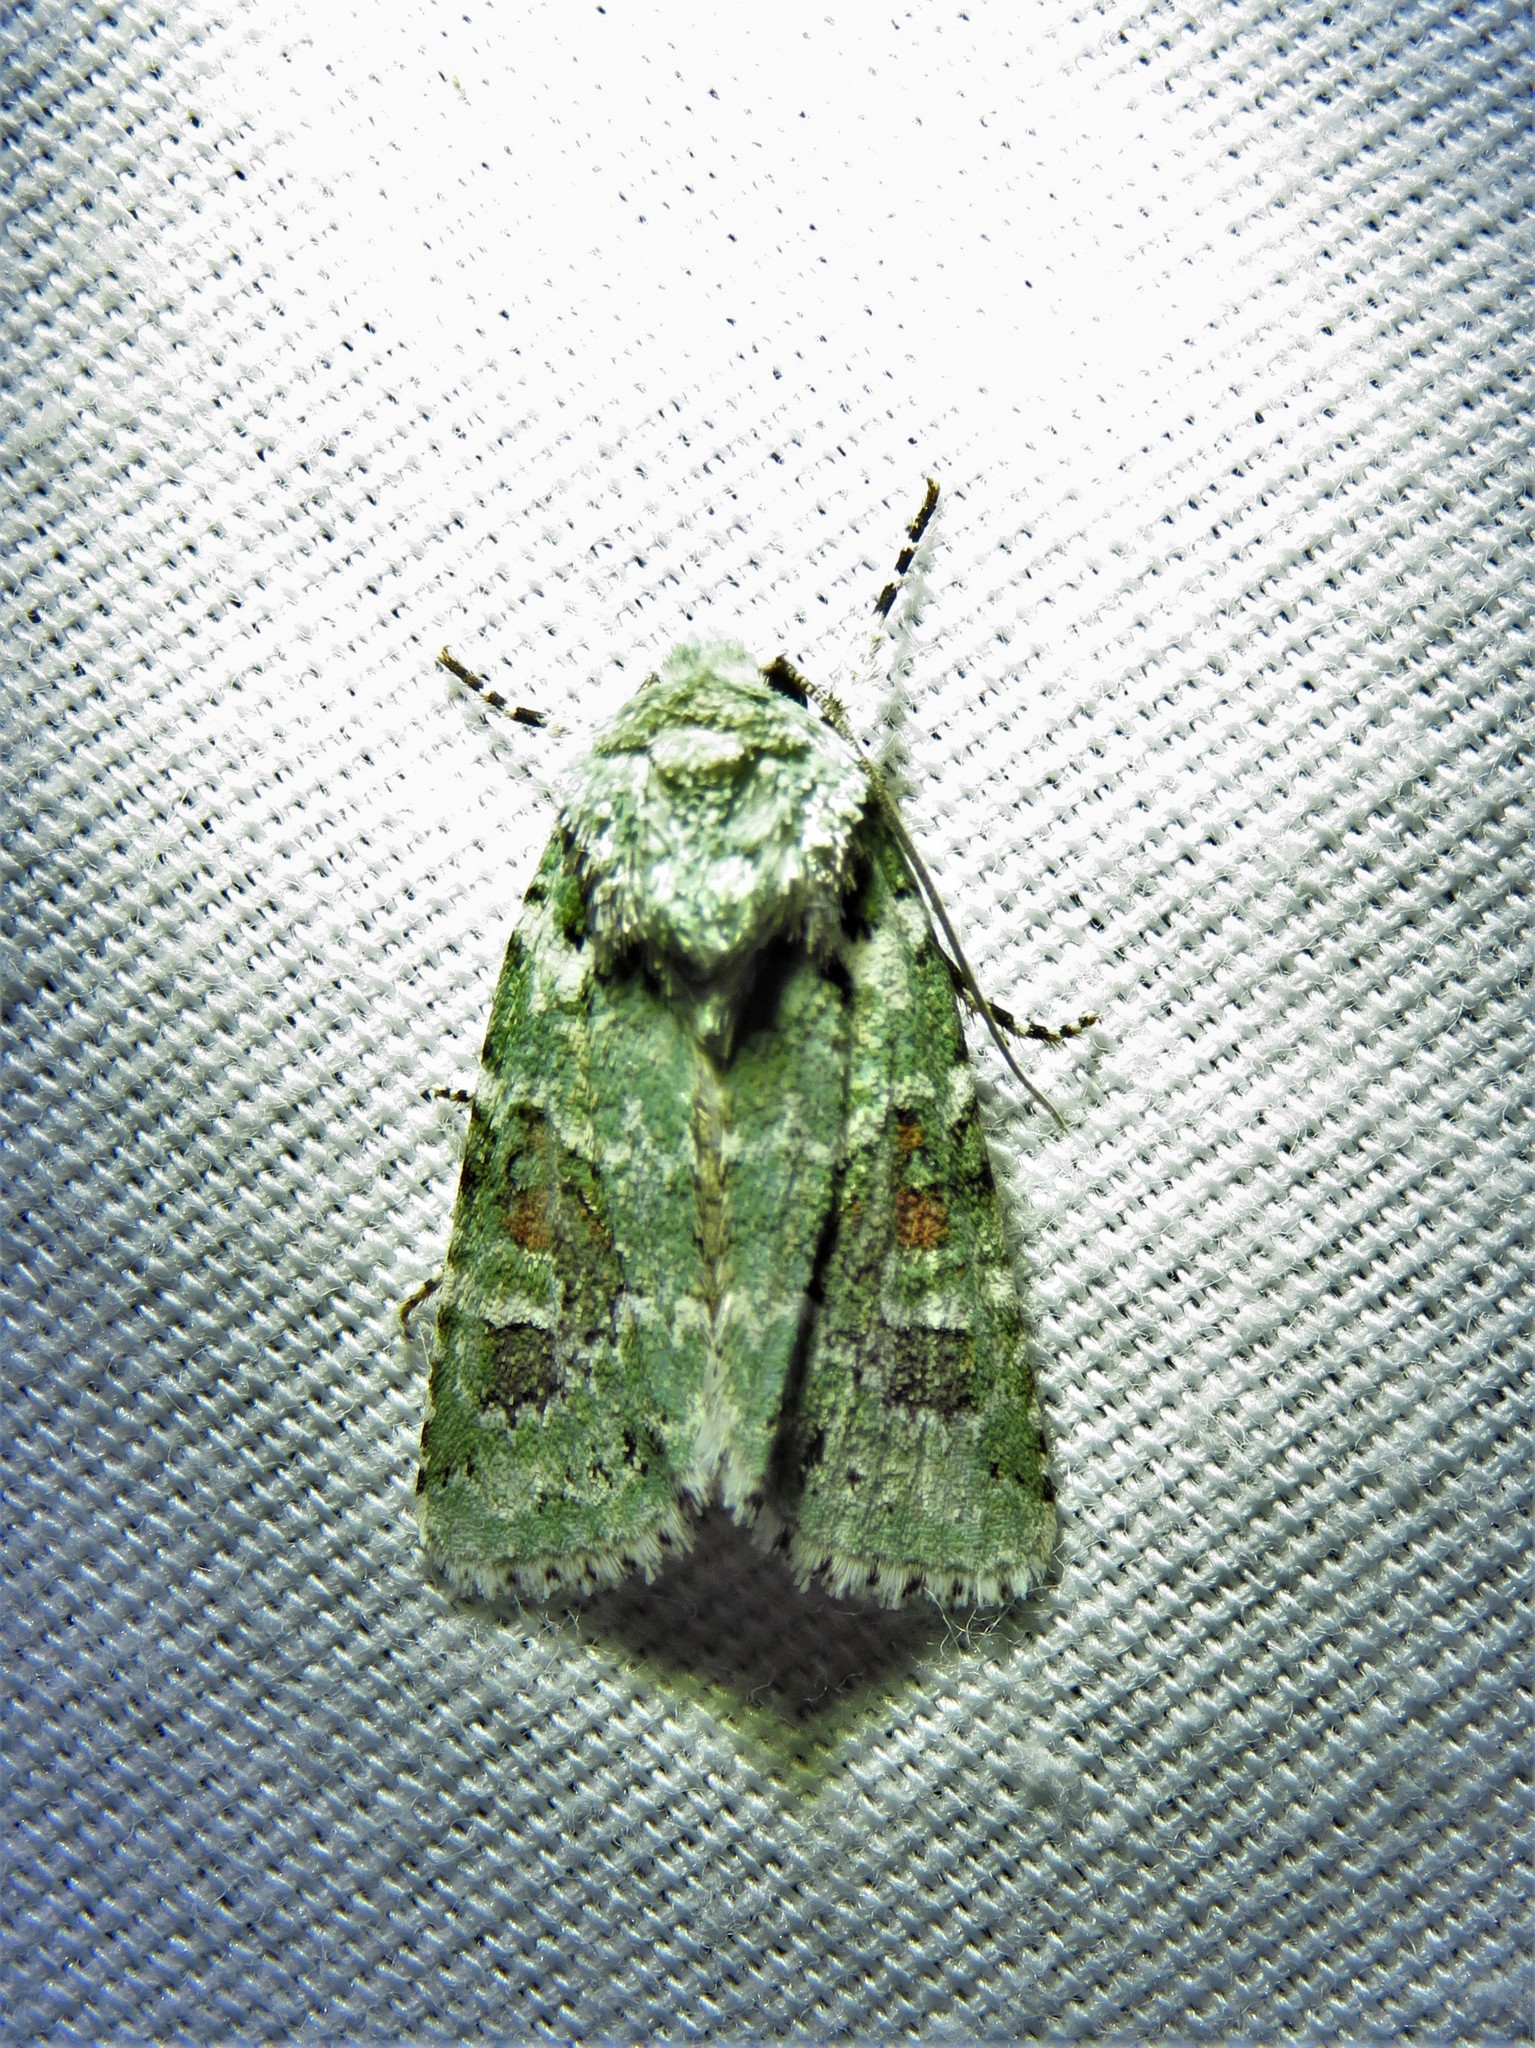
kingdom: Animalia
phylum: Arthropoda
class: Insecta
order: Lepidoptera
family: Noctuidae
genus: Lacinipolia
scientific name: Lacinipolia laudabilis
